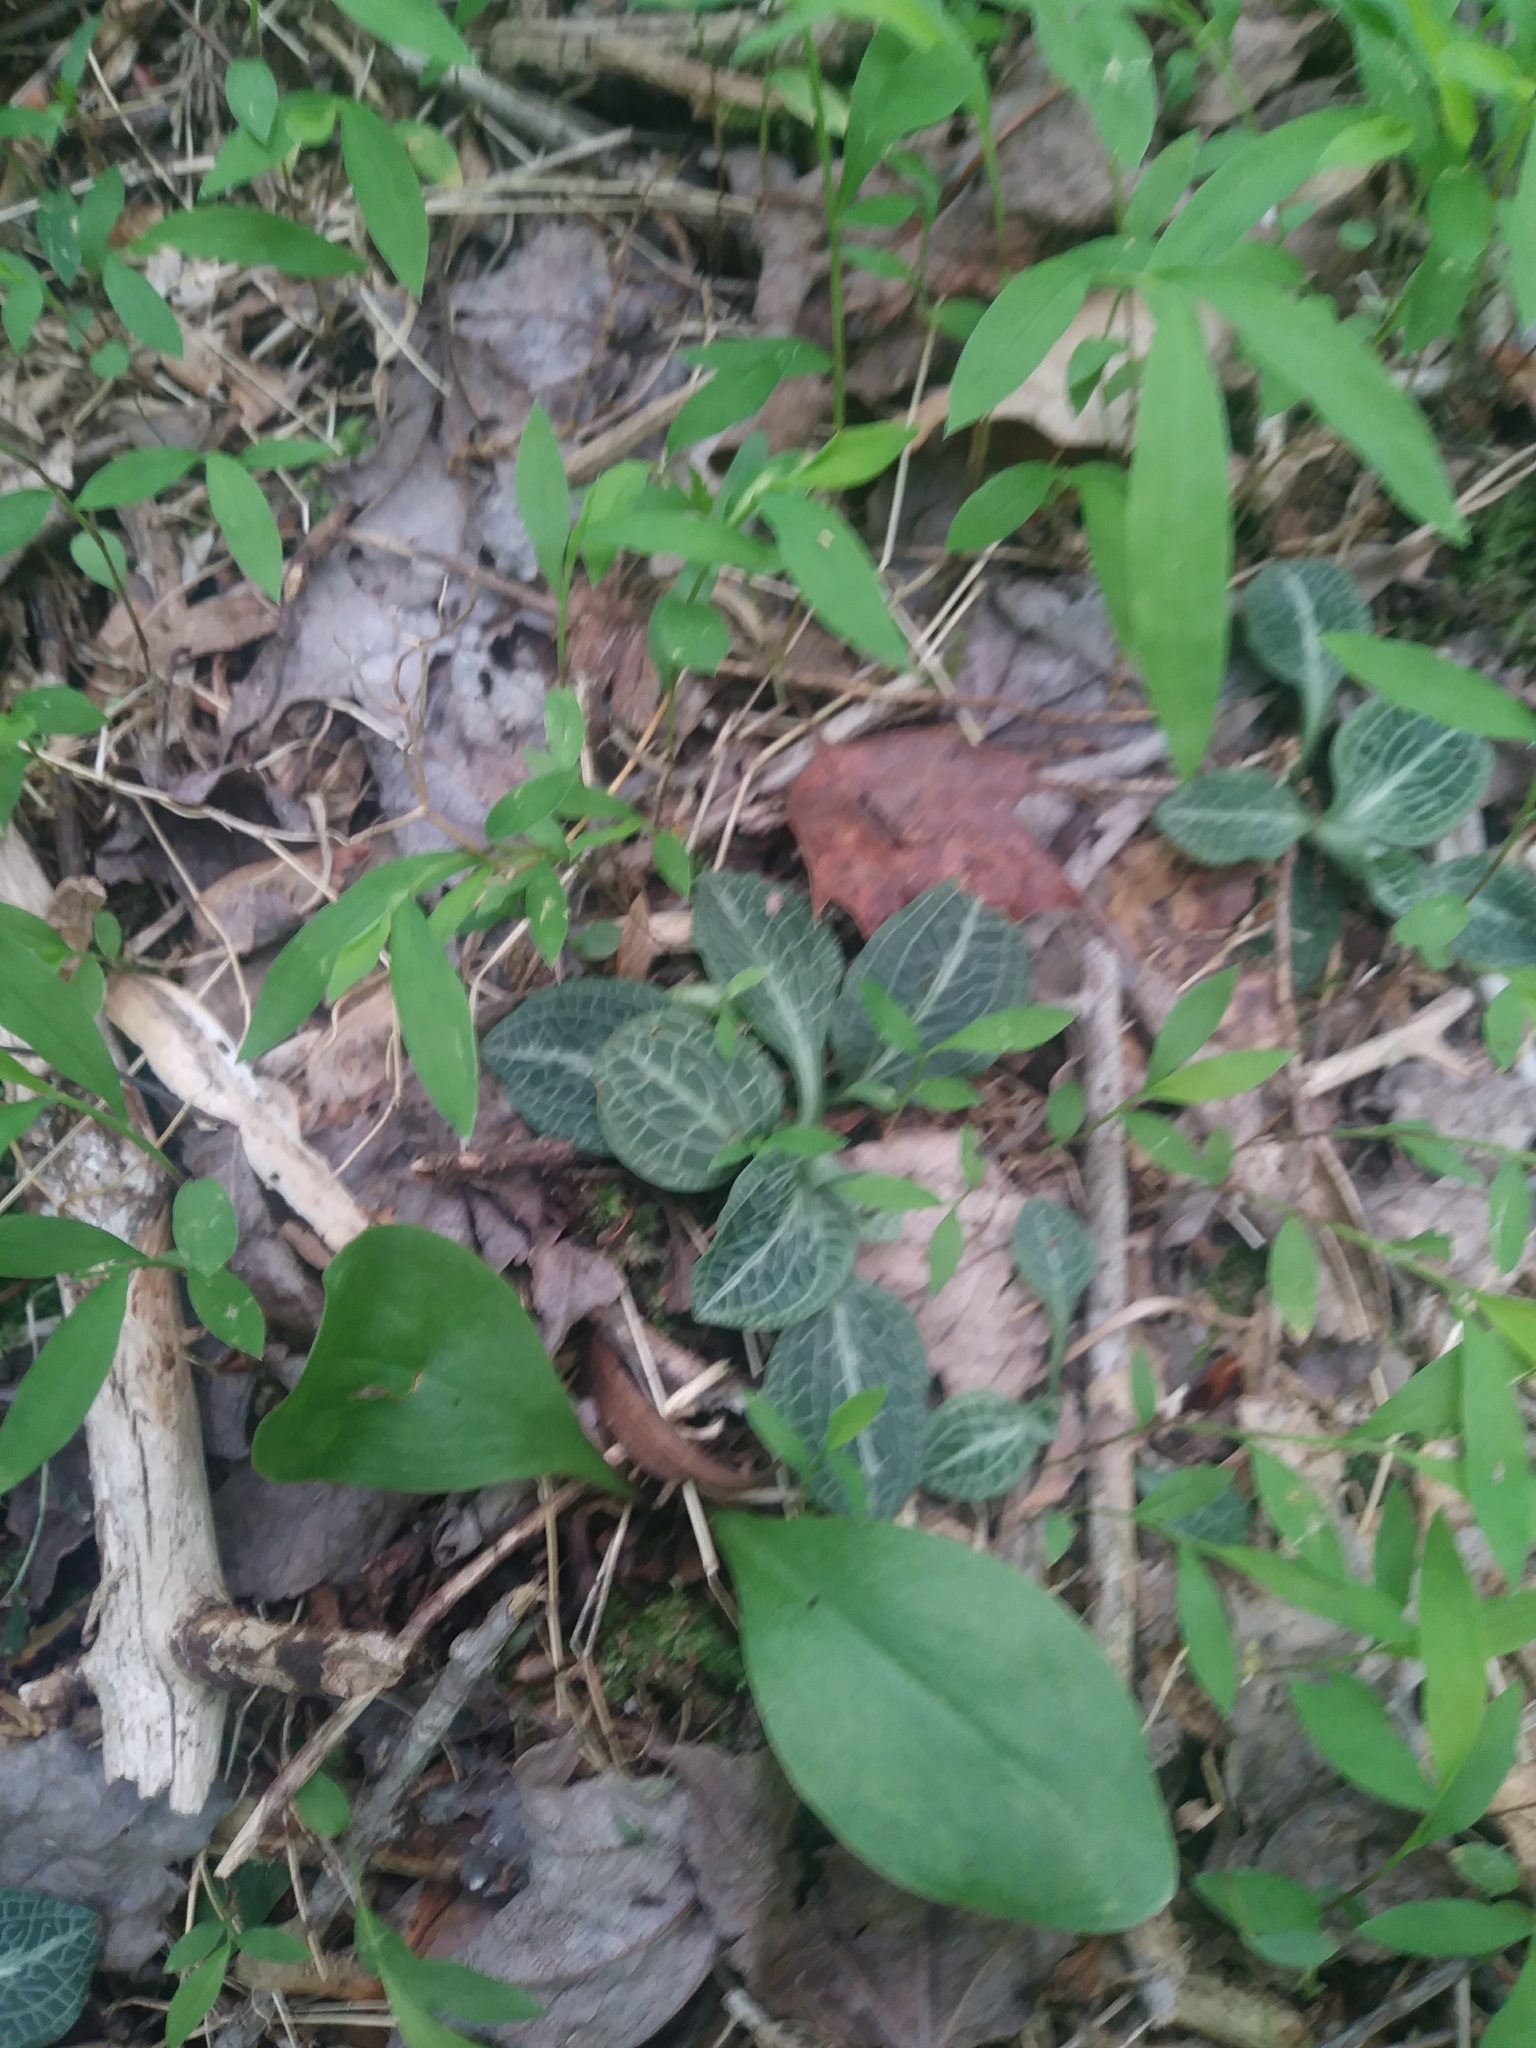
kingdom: Plantae
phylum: Tracheophyta
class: Liliopsida
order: Asparagales
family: Orchidaceae
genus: Goodyera
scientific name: Goodyera pubescens
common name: Downy rattlesnake-plantain
